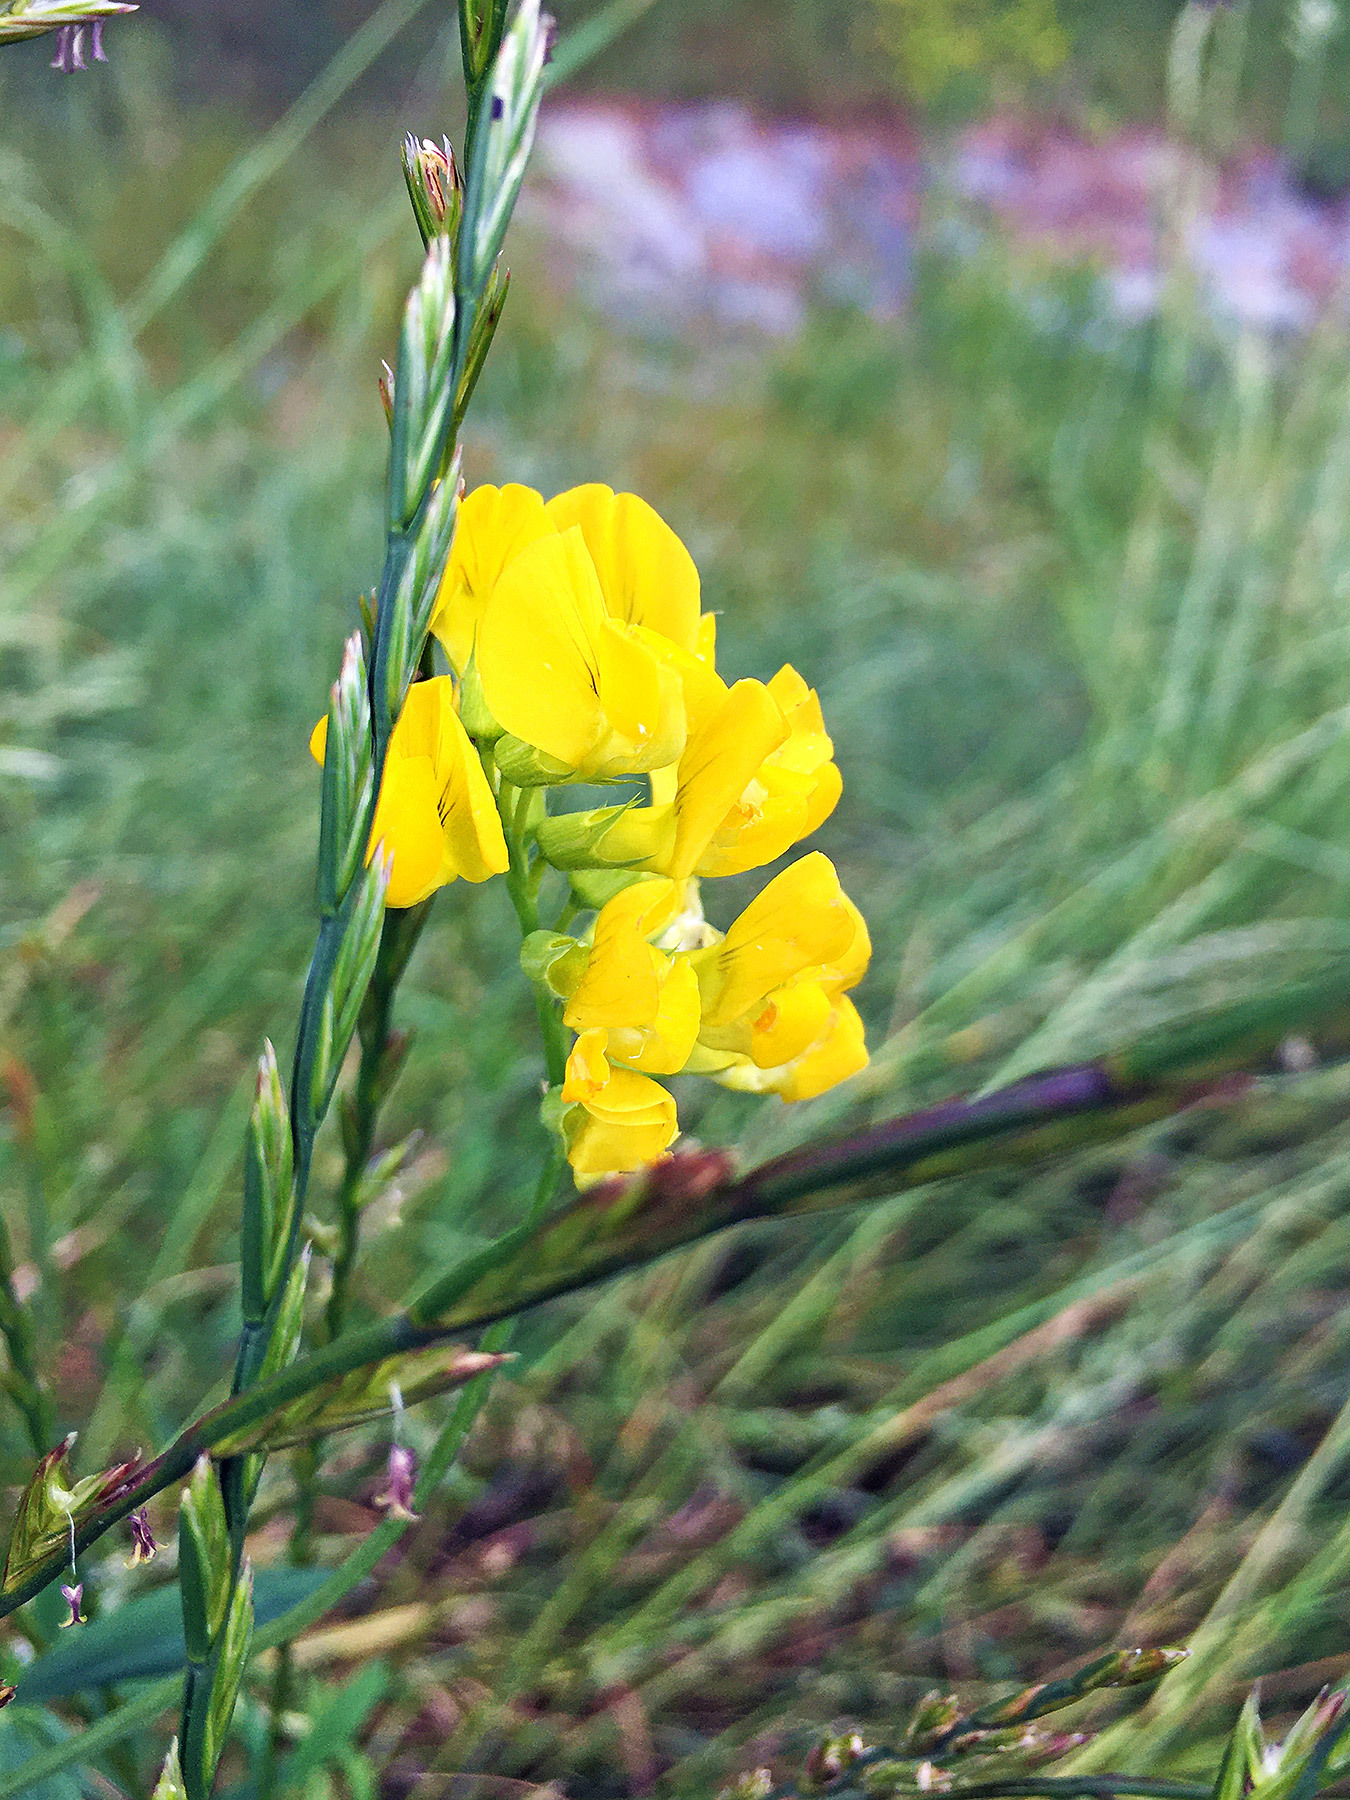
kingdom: Plantae
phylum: Tracheophyta
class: Magnoliopsida
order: Fabales
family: Fabaceae
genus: Lathyrus
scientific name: Lathyrus pratensis
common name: Meadow vetchling
